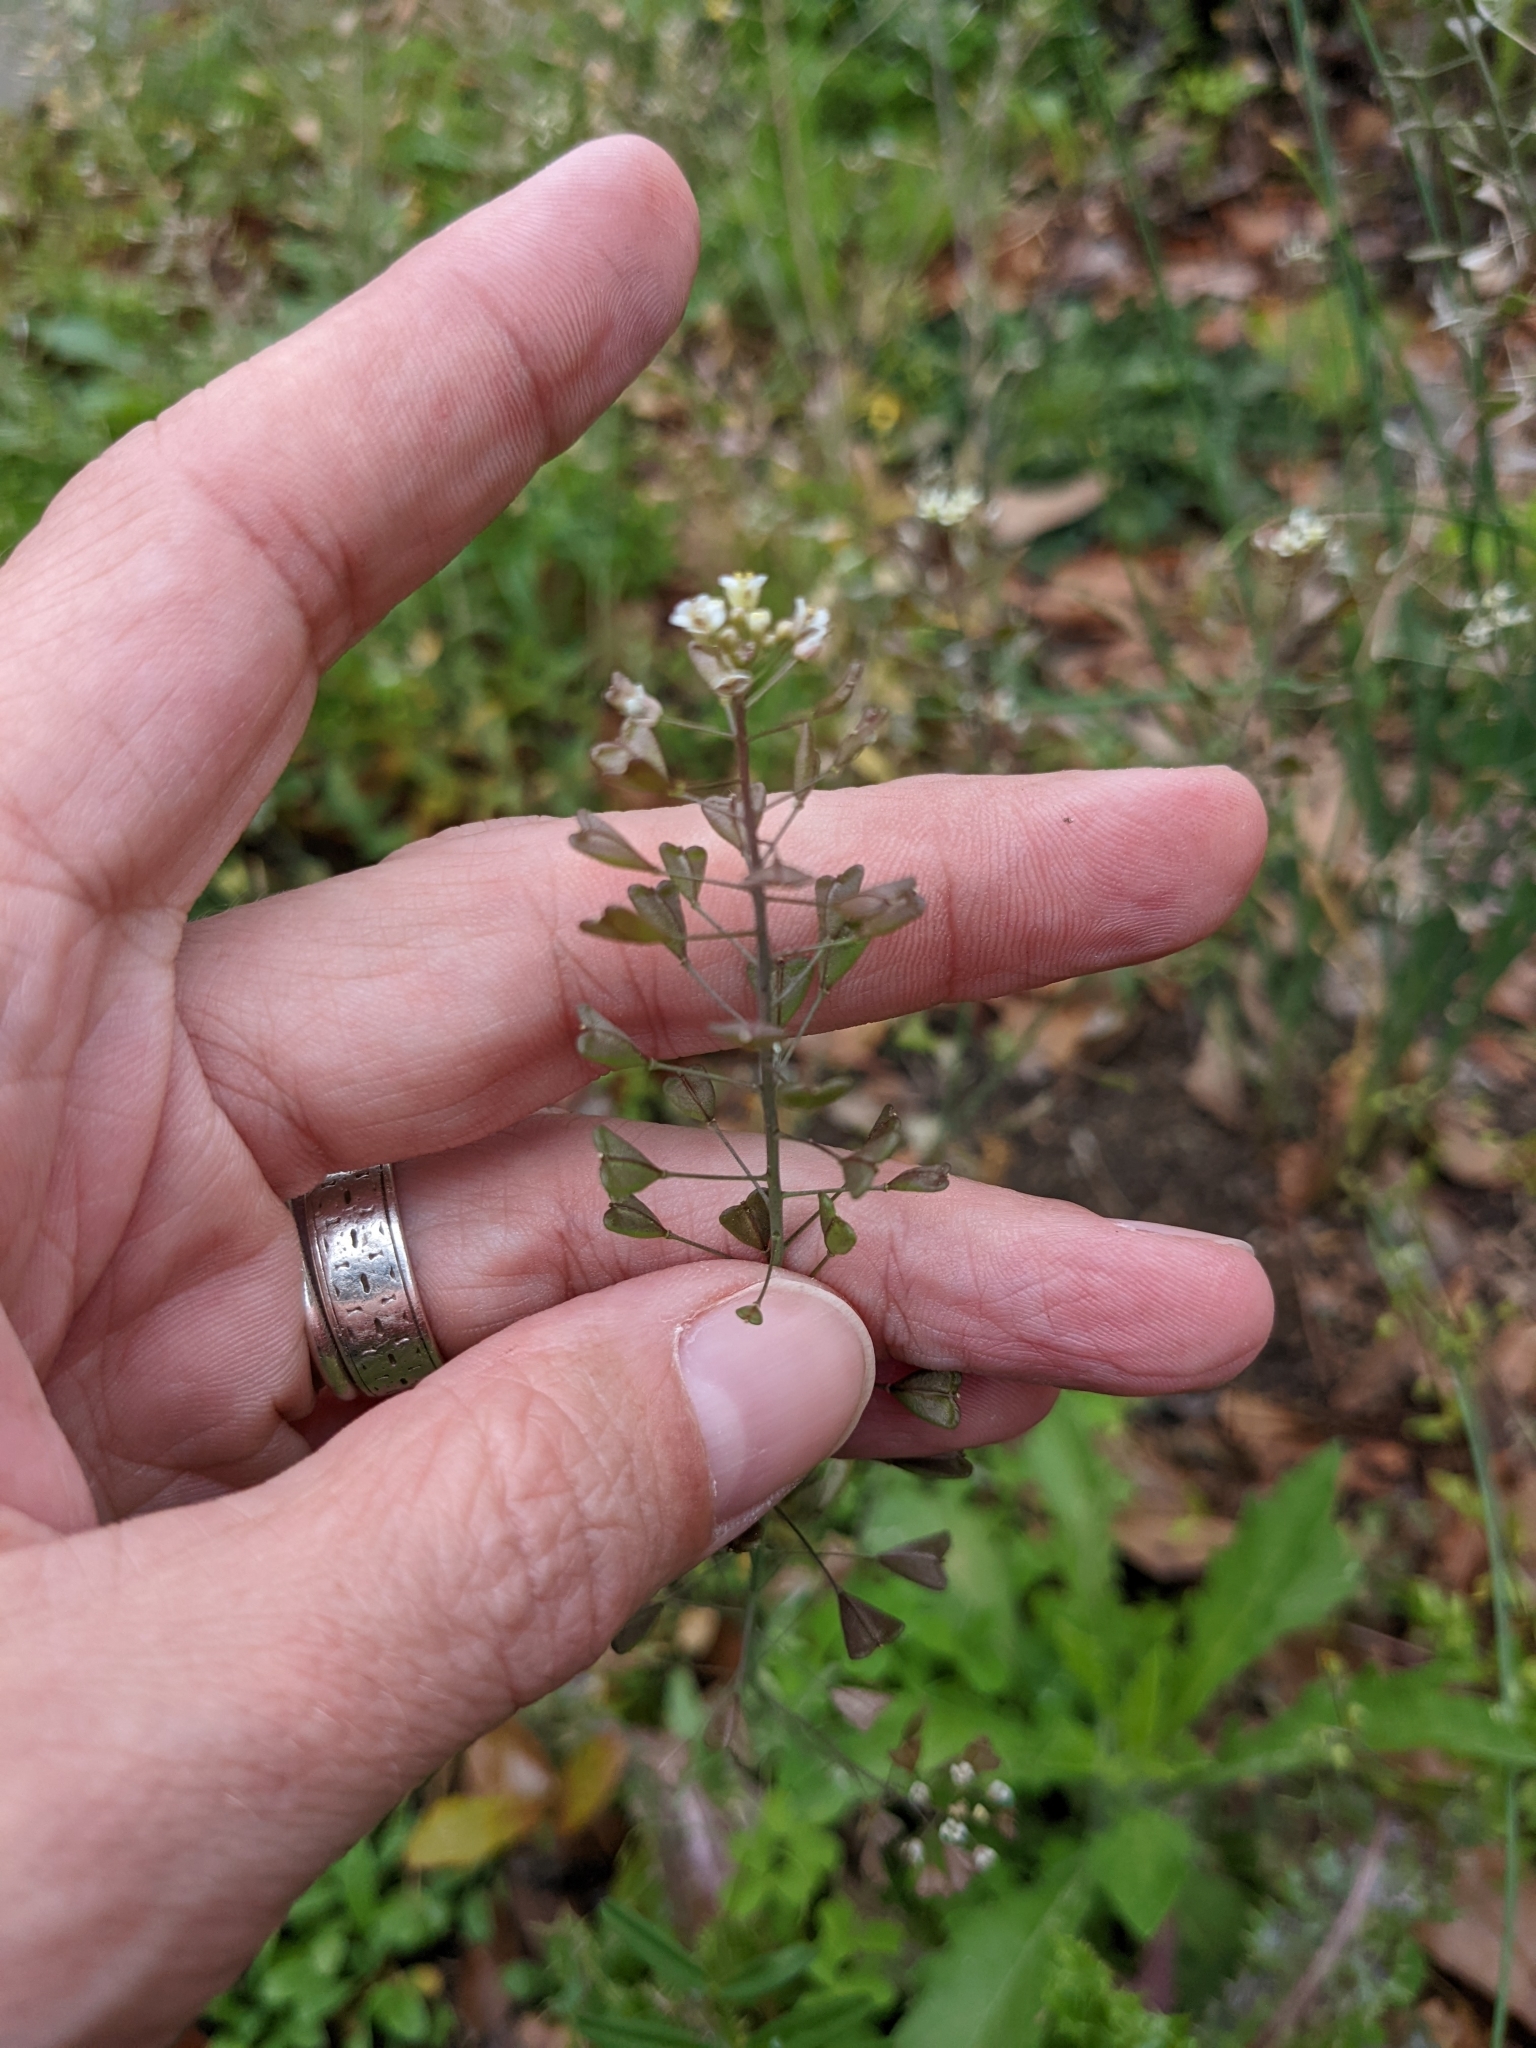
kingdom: Plantae
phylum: Tracheophyta
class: Magnoliopsida
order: Brassicales
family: Brassicaceae
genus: Capsella
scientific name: Capsella bursa-pastoris
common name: Shepherd's purse
